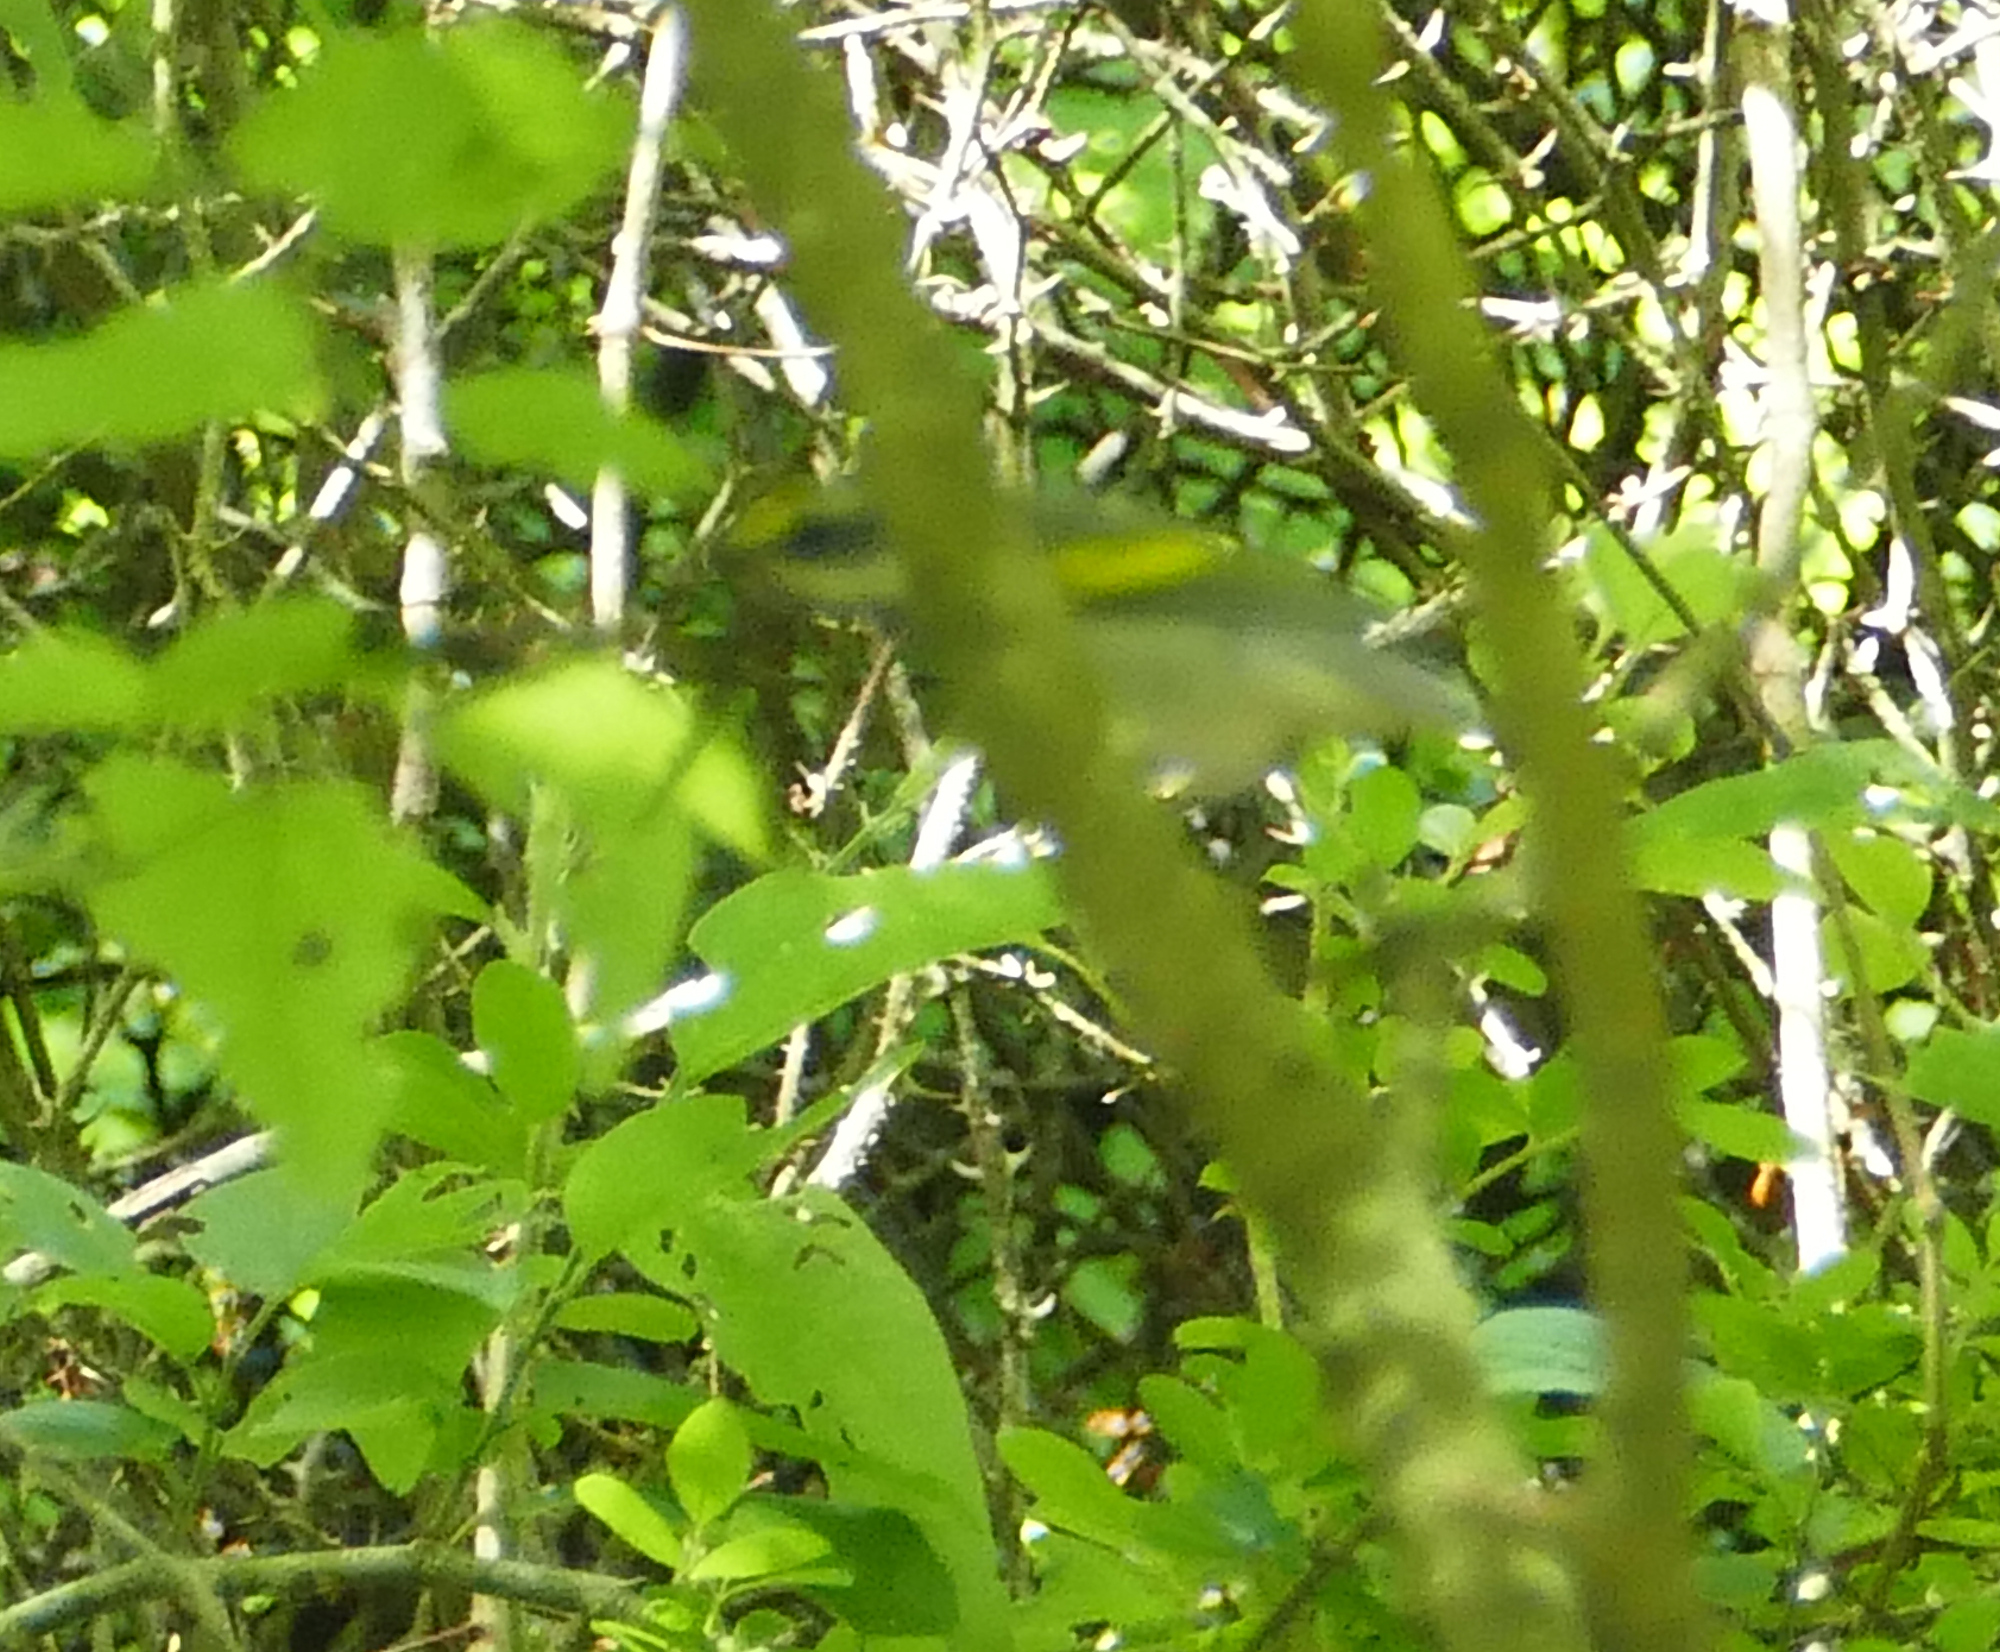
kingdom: Animalia
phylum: Chordata
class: Aves
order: Passeriformes
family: Parulidae
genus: Vermivora
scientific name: Vermivora chrysoptera
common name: Golden-winged warbler
